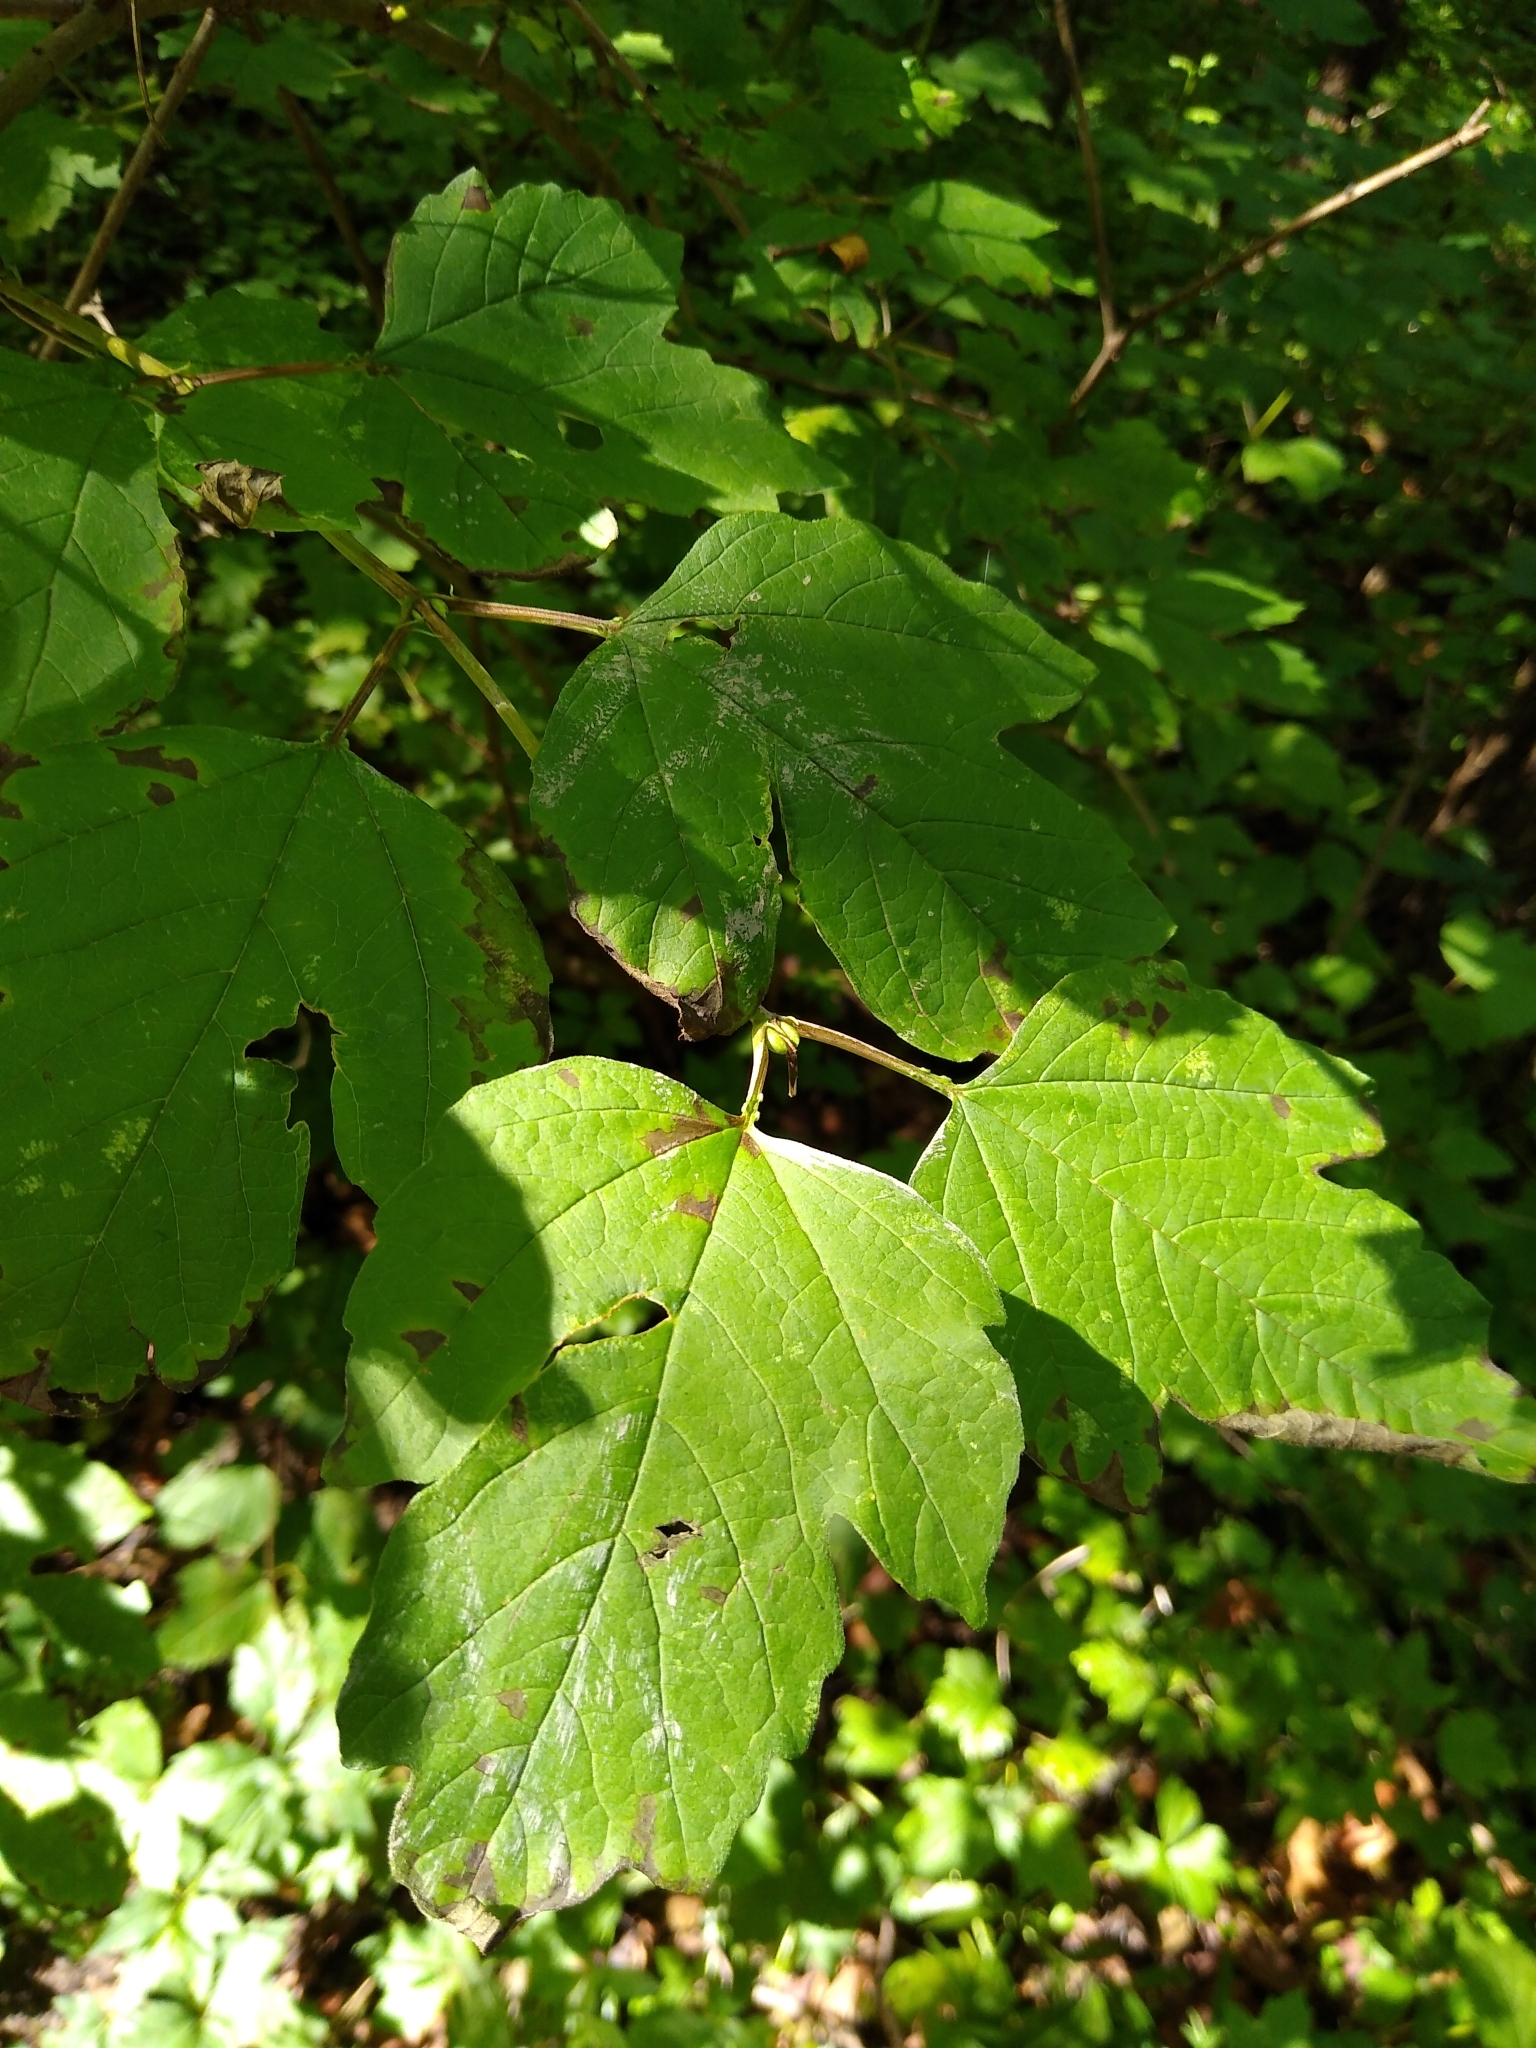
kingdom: Plantae
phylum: Tracheophyta
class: Magnoliopsida
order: Dipsacales
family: Viburnaceae
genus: Viburnum
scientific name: Viburnum opulus
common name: Guelder-rose
